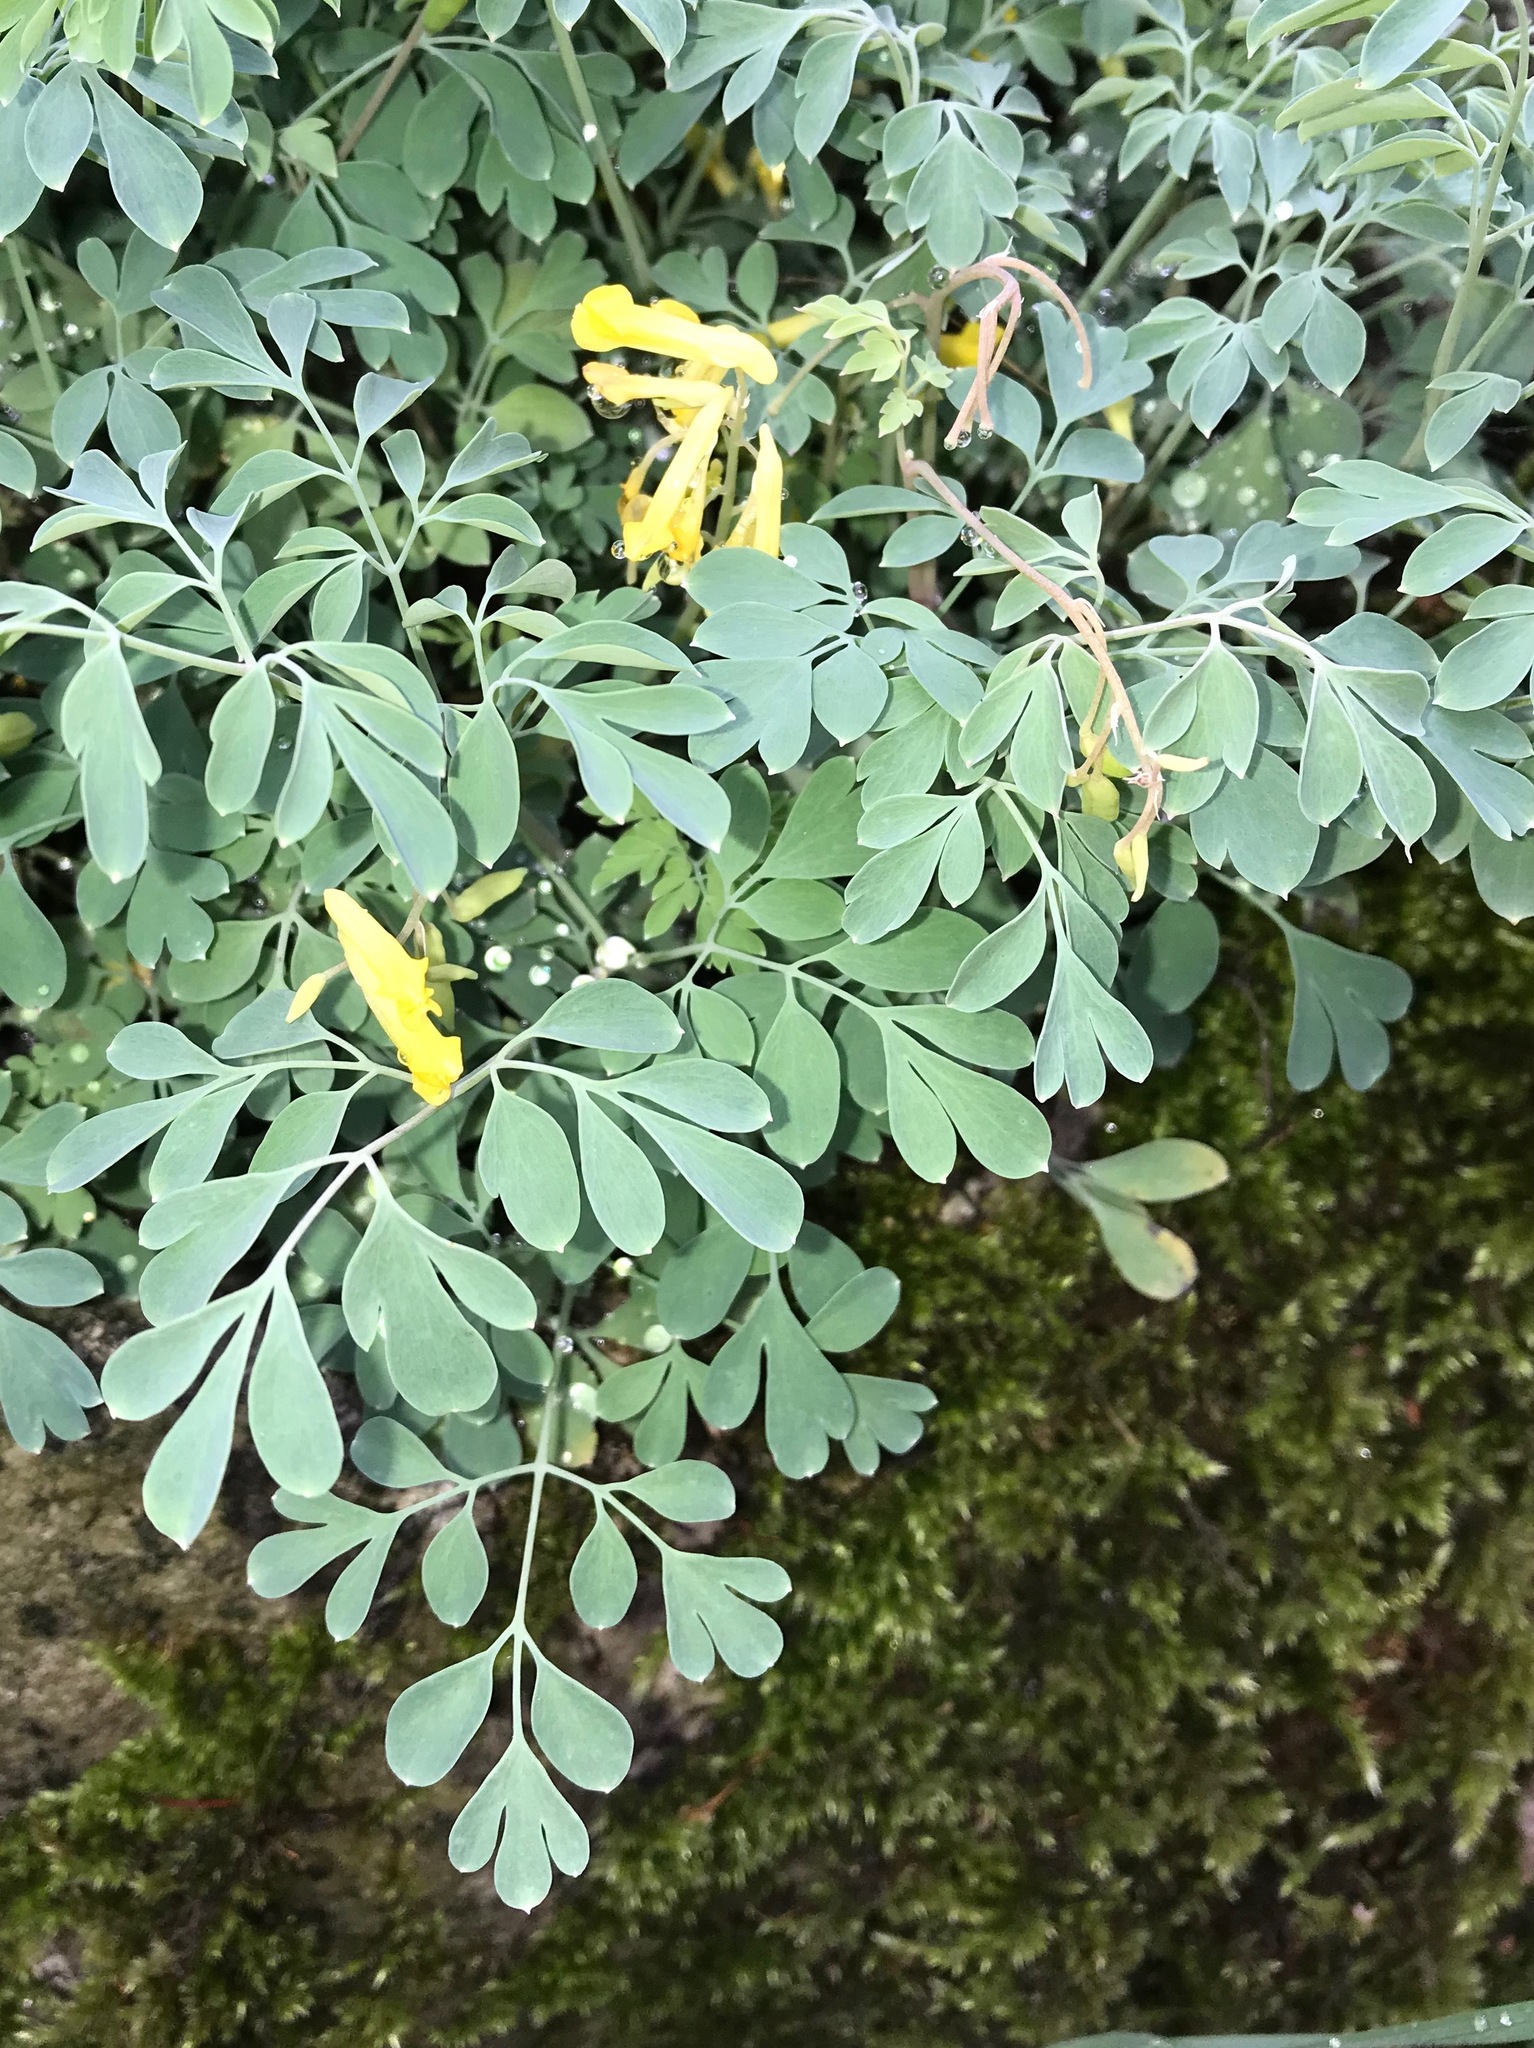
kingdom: Plantae
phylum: Tracheophyta
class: Magnoliopsida
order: Ranunculales
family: Papaveraceae
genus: Pseudofumaria
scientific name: Pseudofumaria lutea
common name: Yellow corydalis
